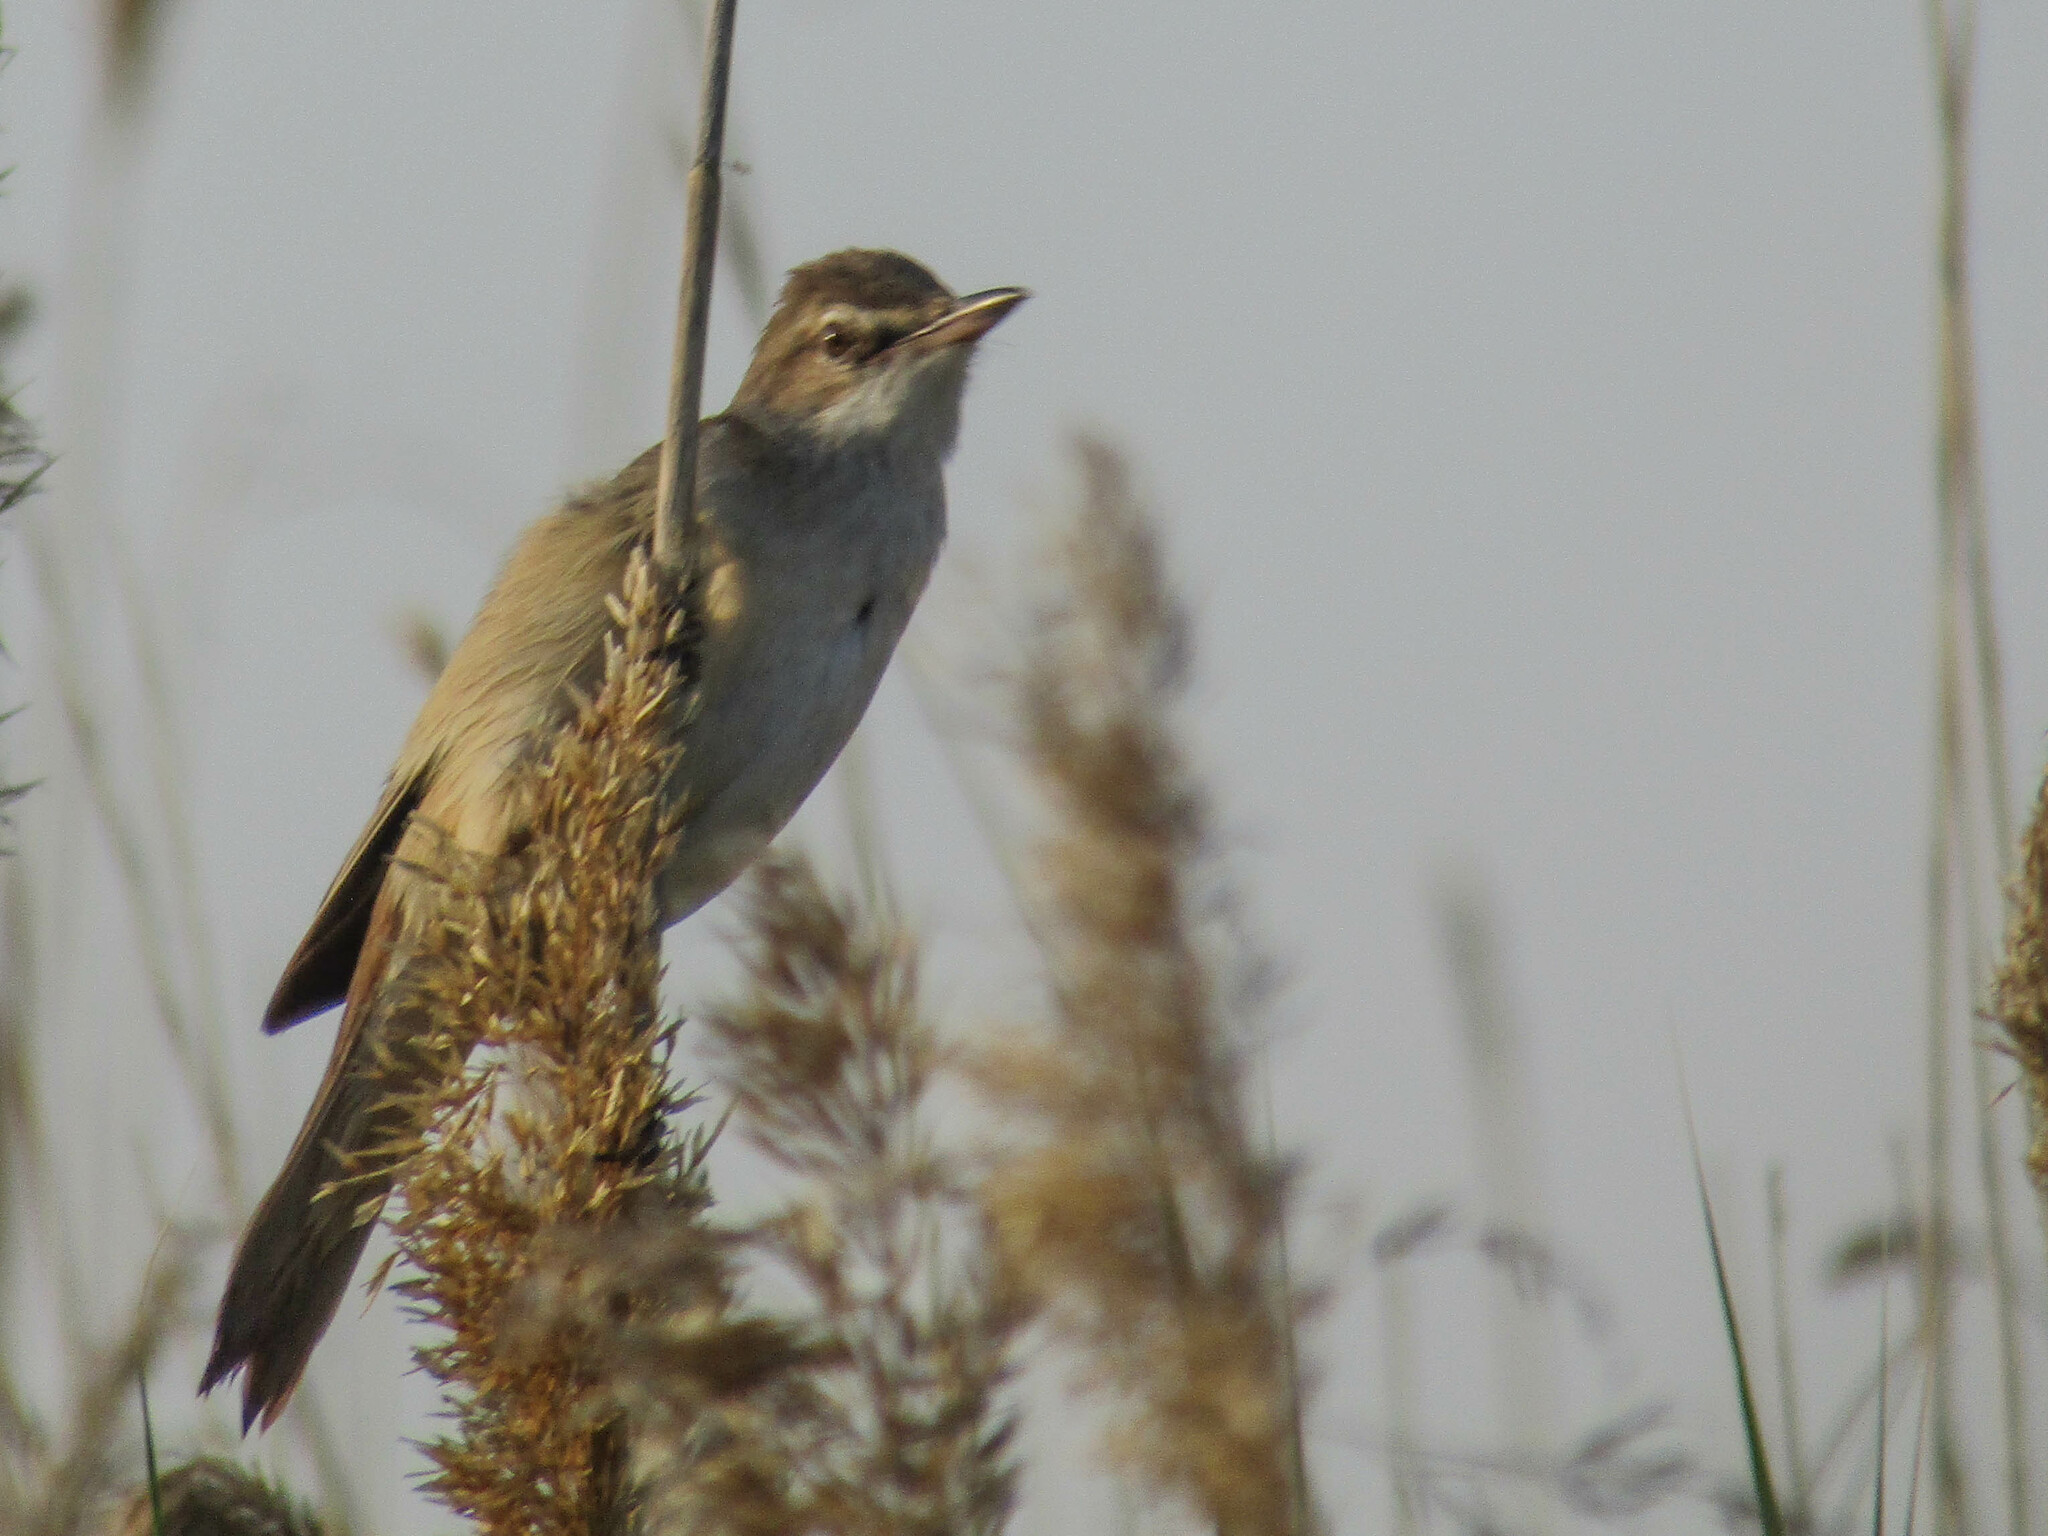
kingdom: Animalia
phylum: Chordata
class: Aves
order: Passeriformes
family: Acrocephalidae
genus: Acrocephalus
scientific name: Acrocephalus arundinaceus
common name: Great reed warbler
